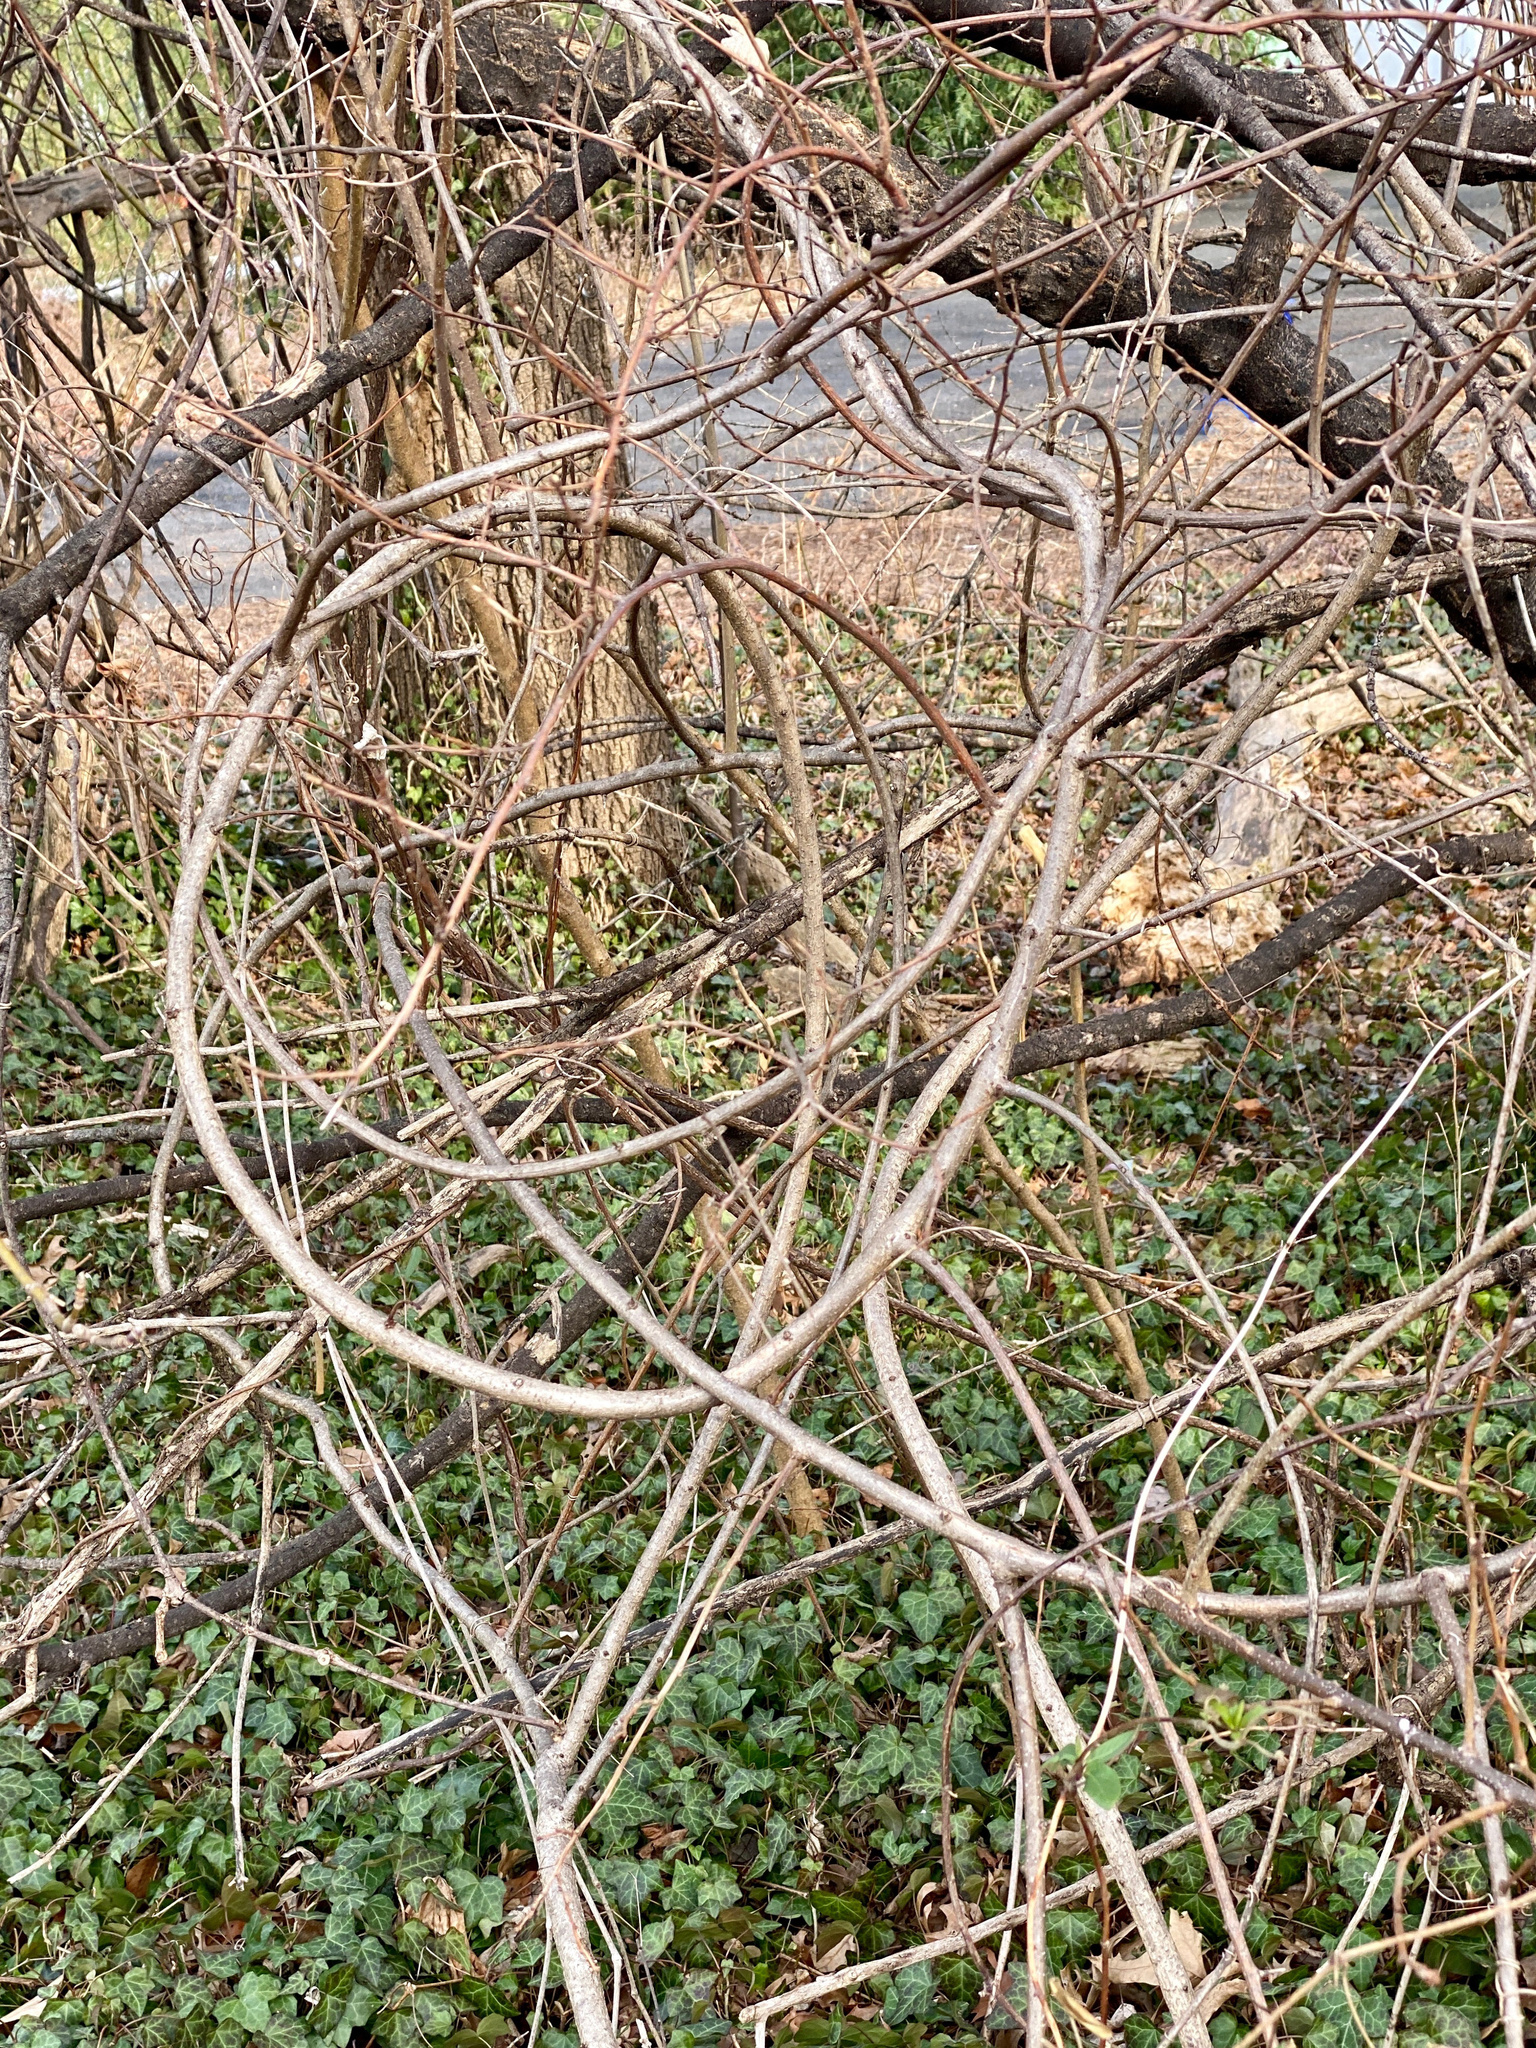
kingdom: Plantae
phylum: Tracheophyta
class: Magnoliopsida
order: Celastrales
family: Celastraceae
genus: Celastrus
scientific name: Celastrus orbiculatus
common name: Oriental bittersweet
